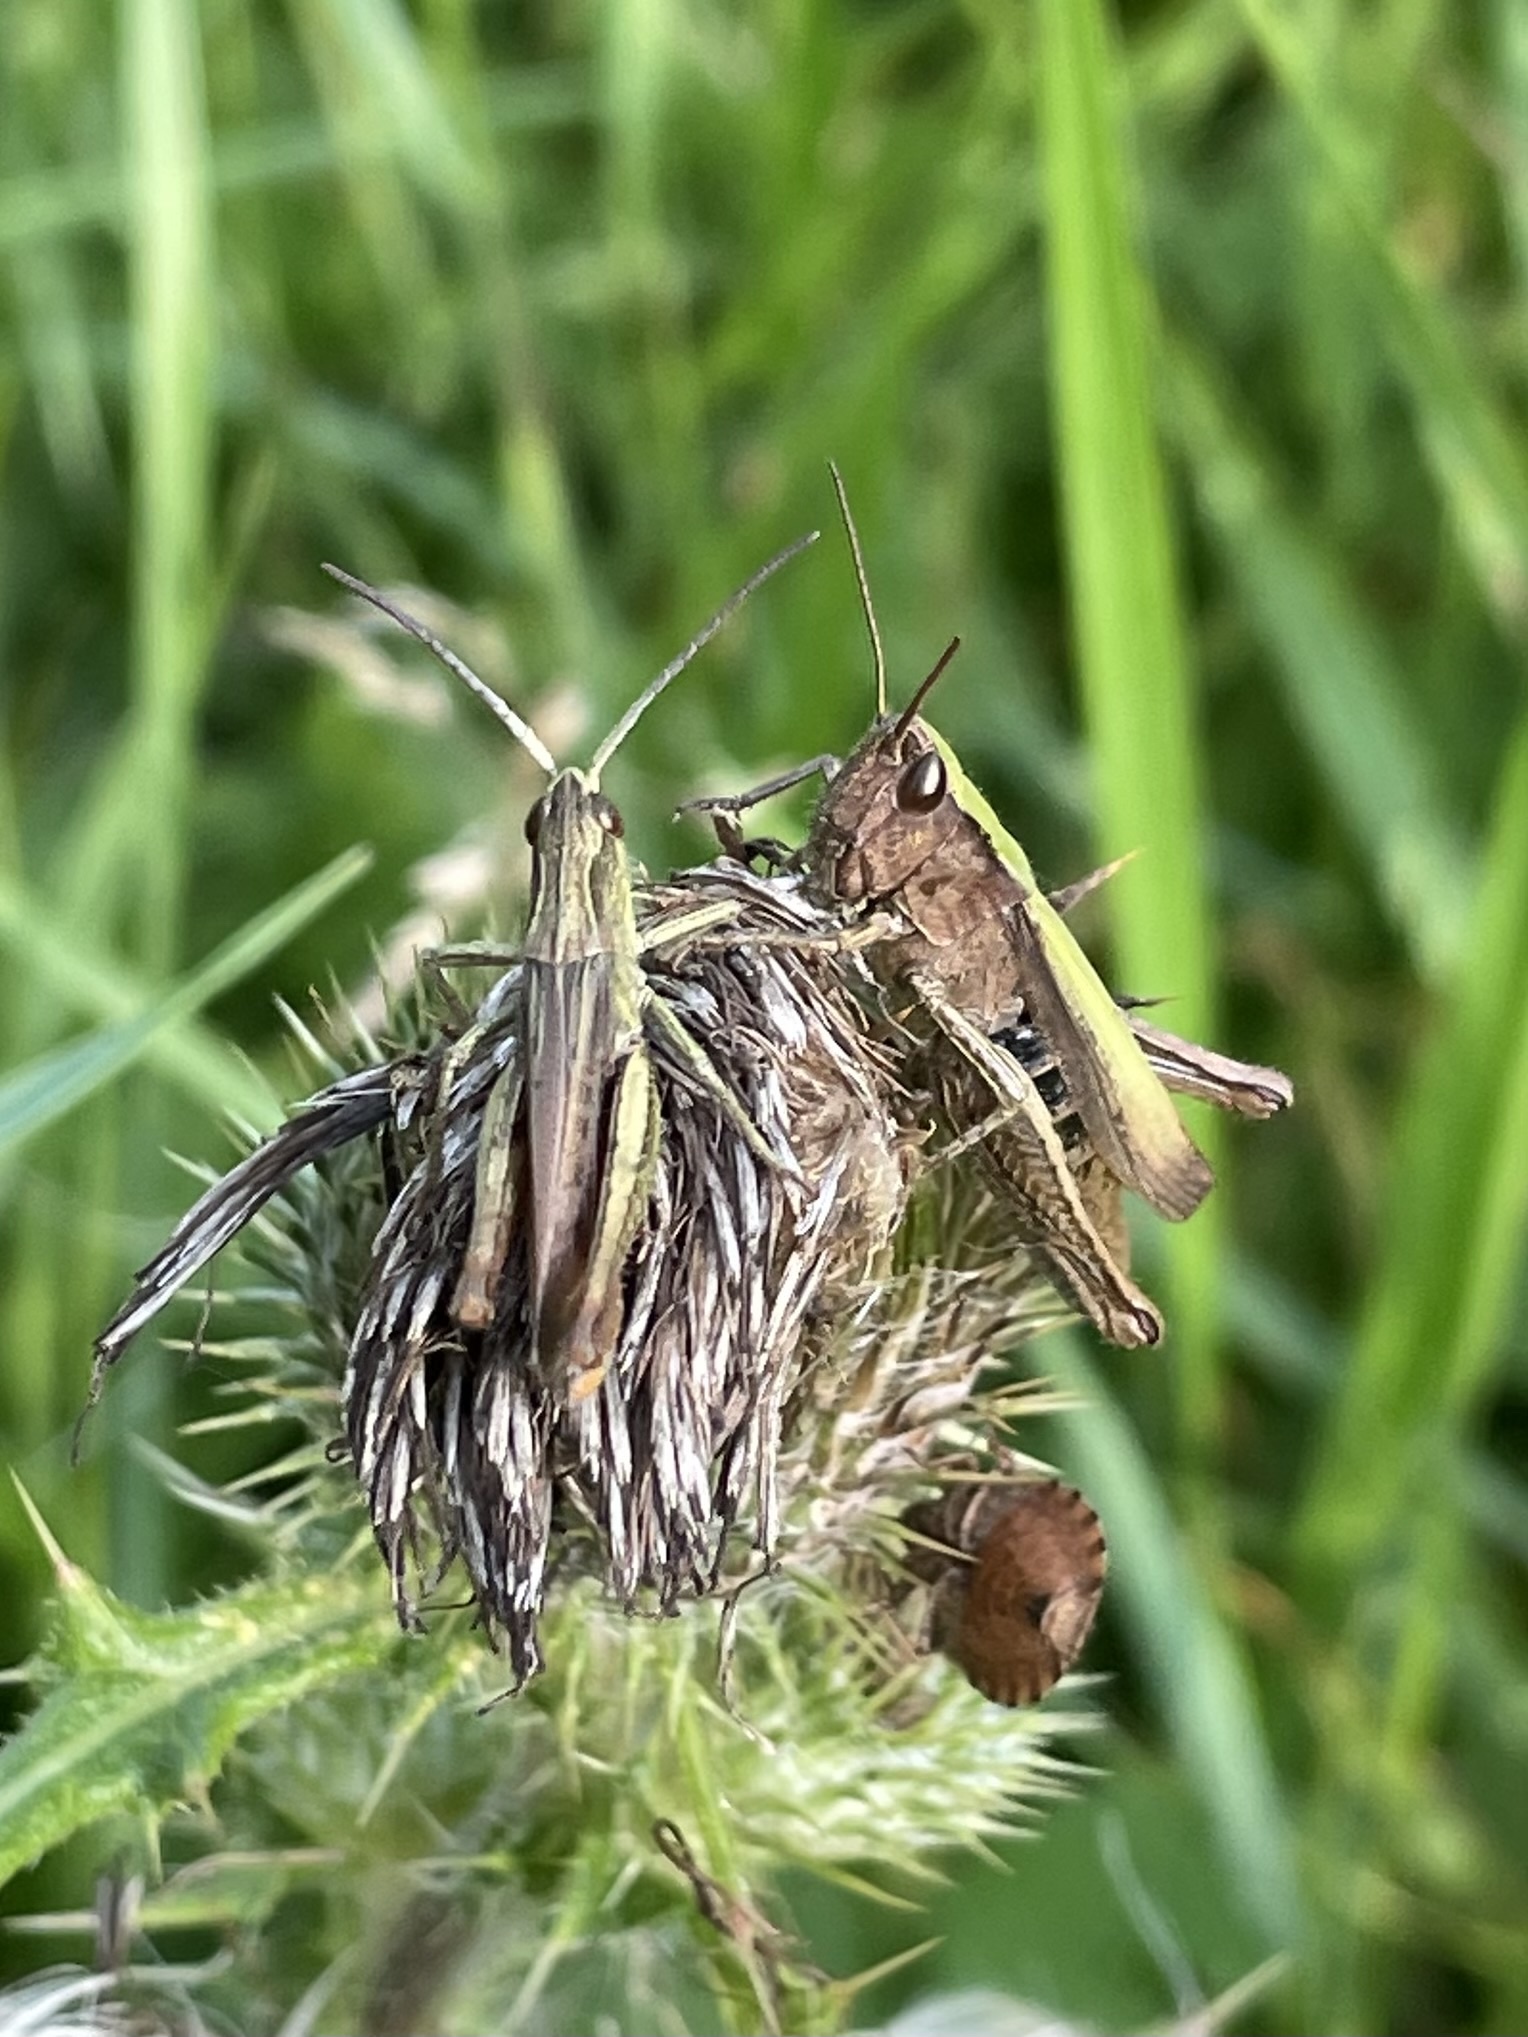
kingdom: Animalia
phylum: Arthropoda
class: Insecta
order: Orthoptera
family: Acrididae
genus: Chorthippus
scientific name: Chorthippus dorsatus
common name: Steppe grasshopper
